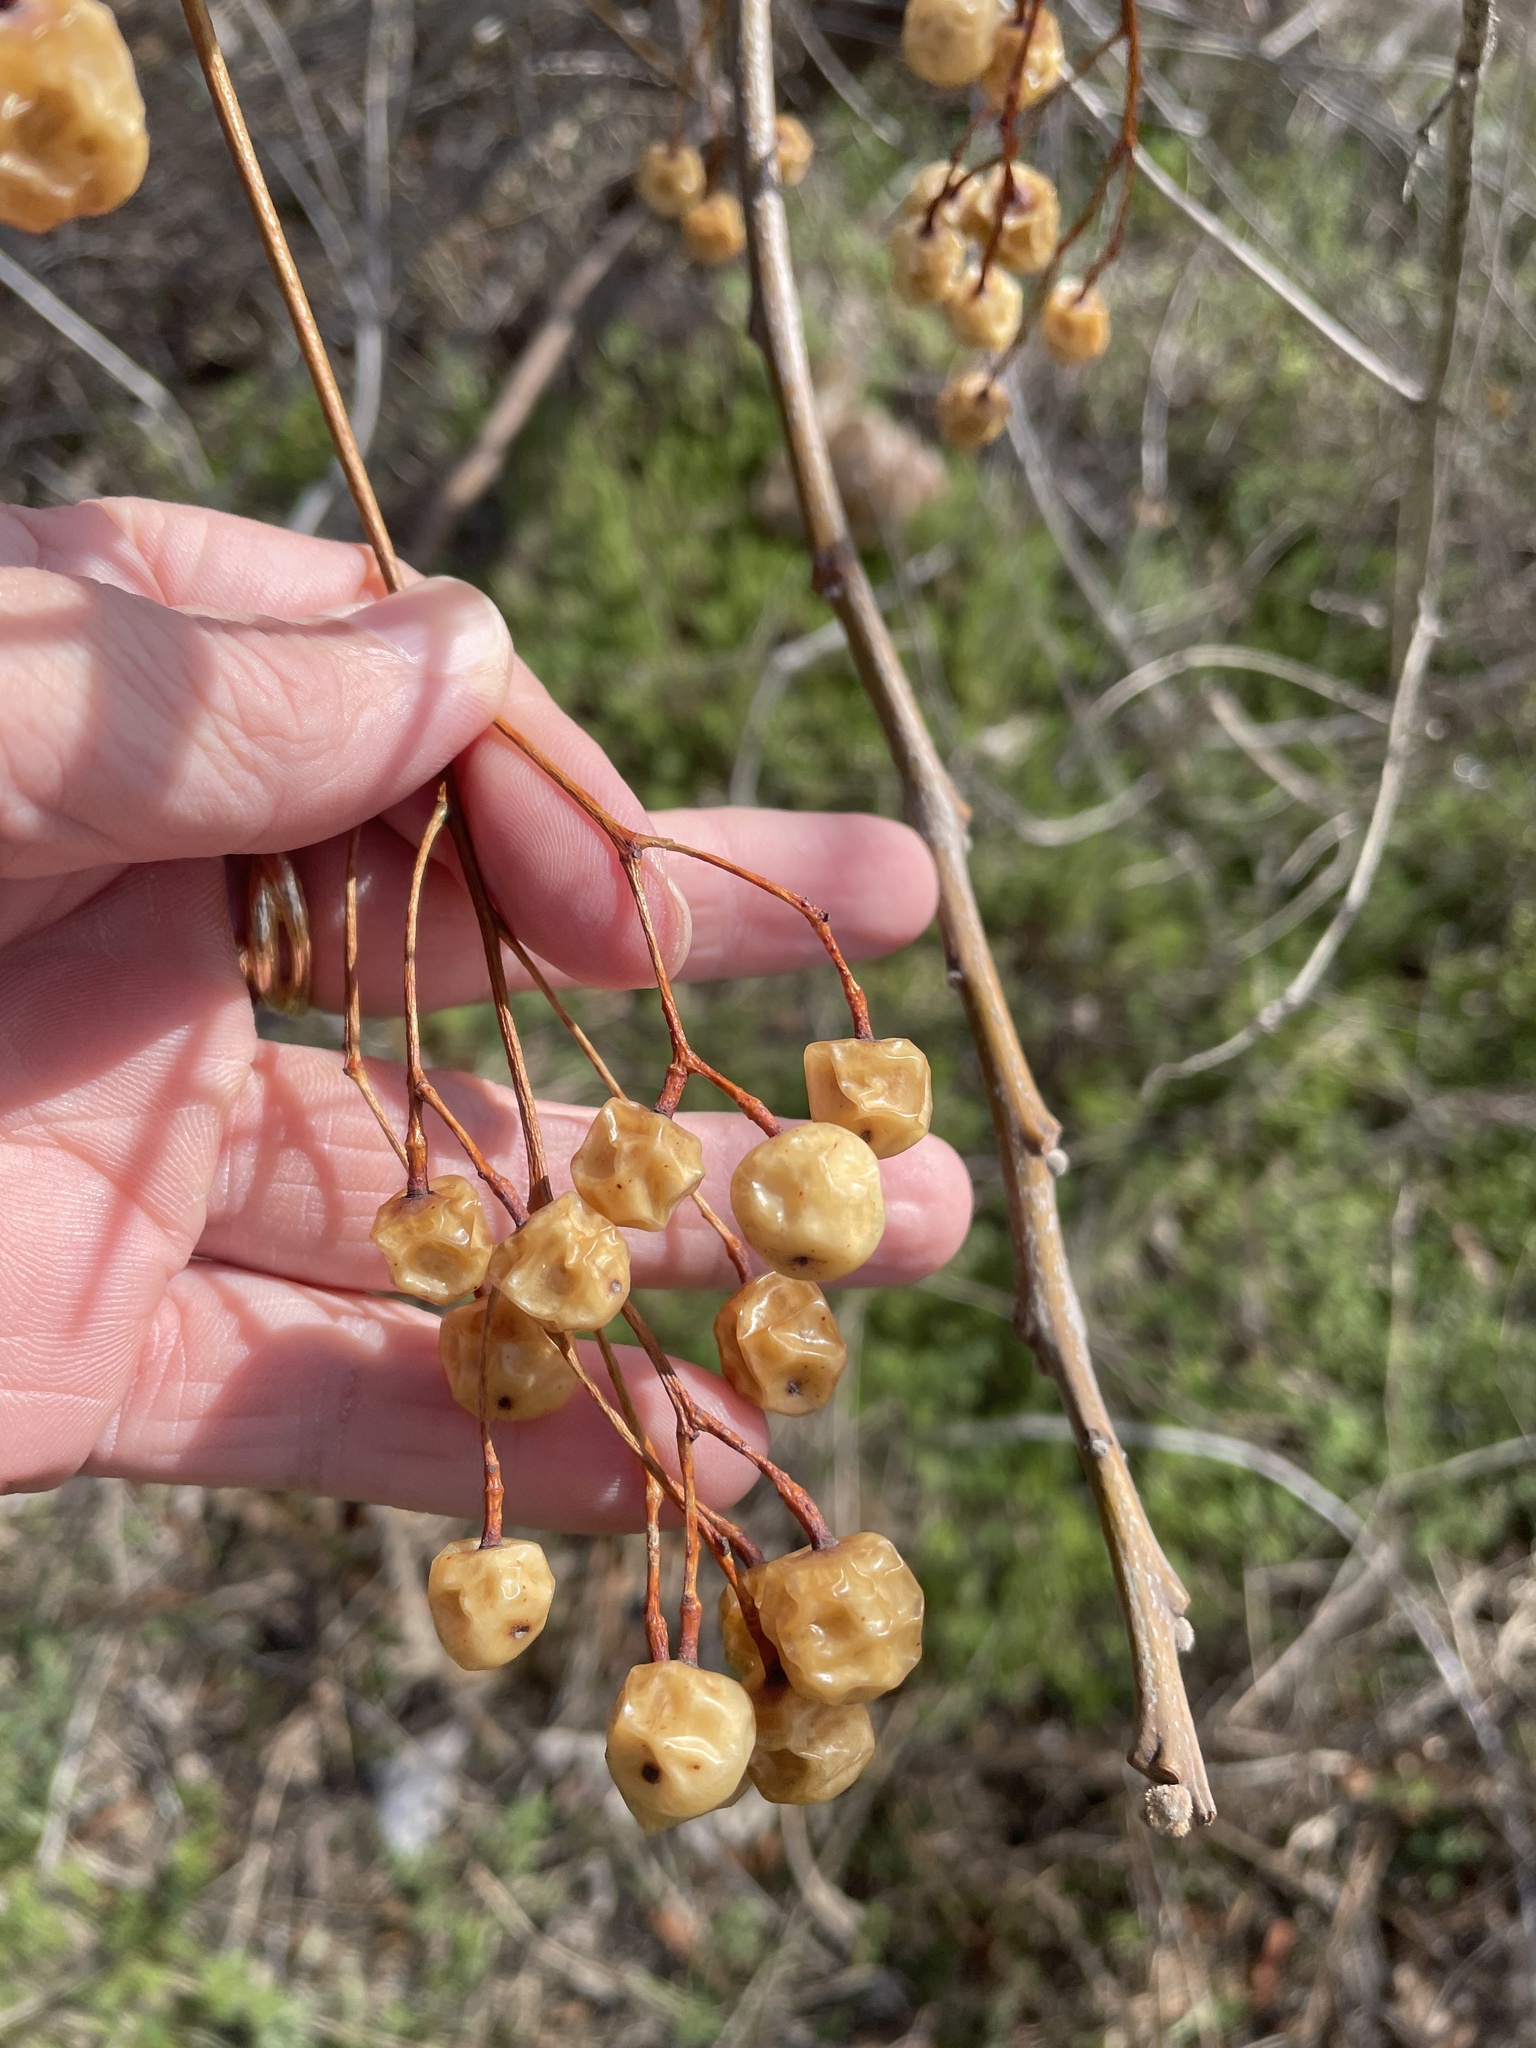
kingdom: Plantae
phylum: Tracheophyta
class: Magnoliopsida
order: Sapindales
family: Meliaceae
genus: Melia
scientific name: Melia azedarach
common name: Chinaberrytree
